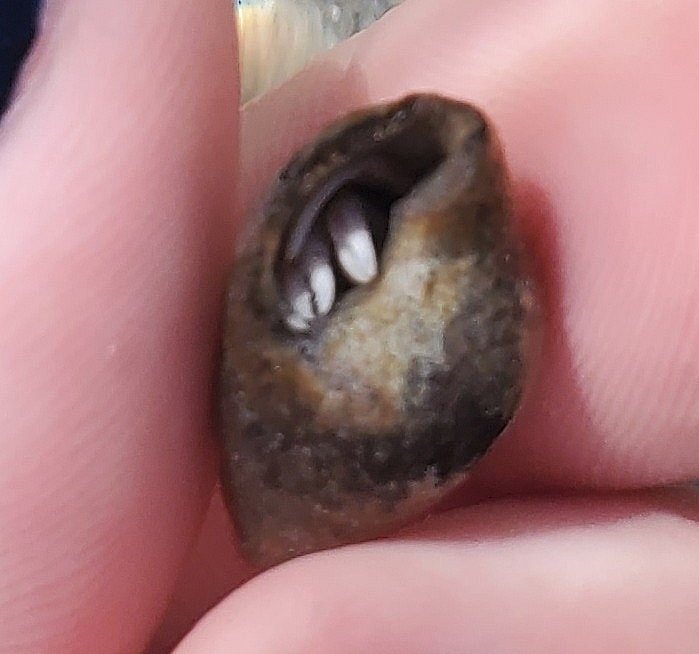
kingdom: Animalia
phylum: Arthropoda
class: Malacostraca
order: Decapoda
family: Paguridae
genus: Pagurus
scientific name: Pagurus longicarpus
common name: Long-armed hermit crab
